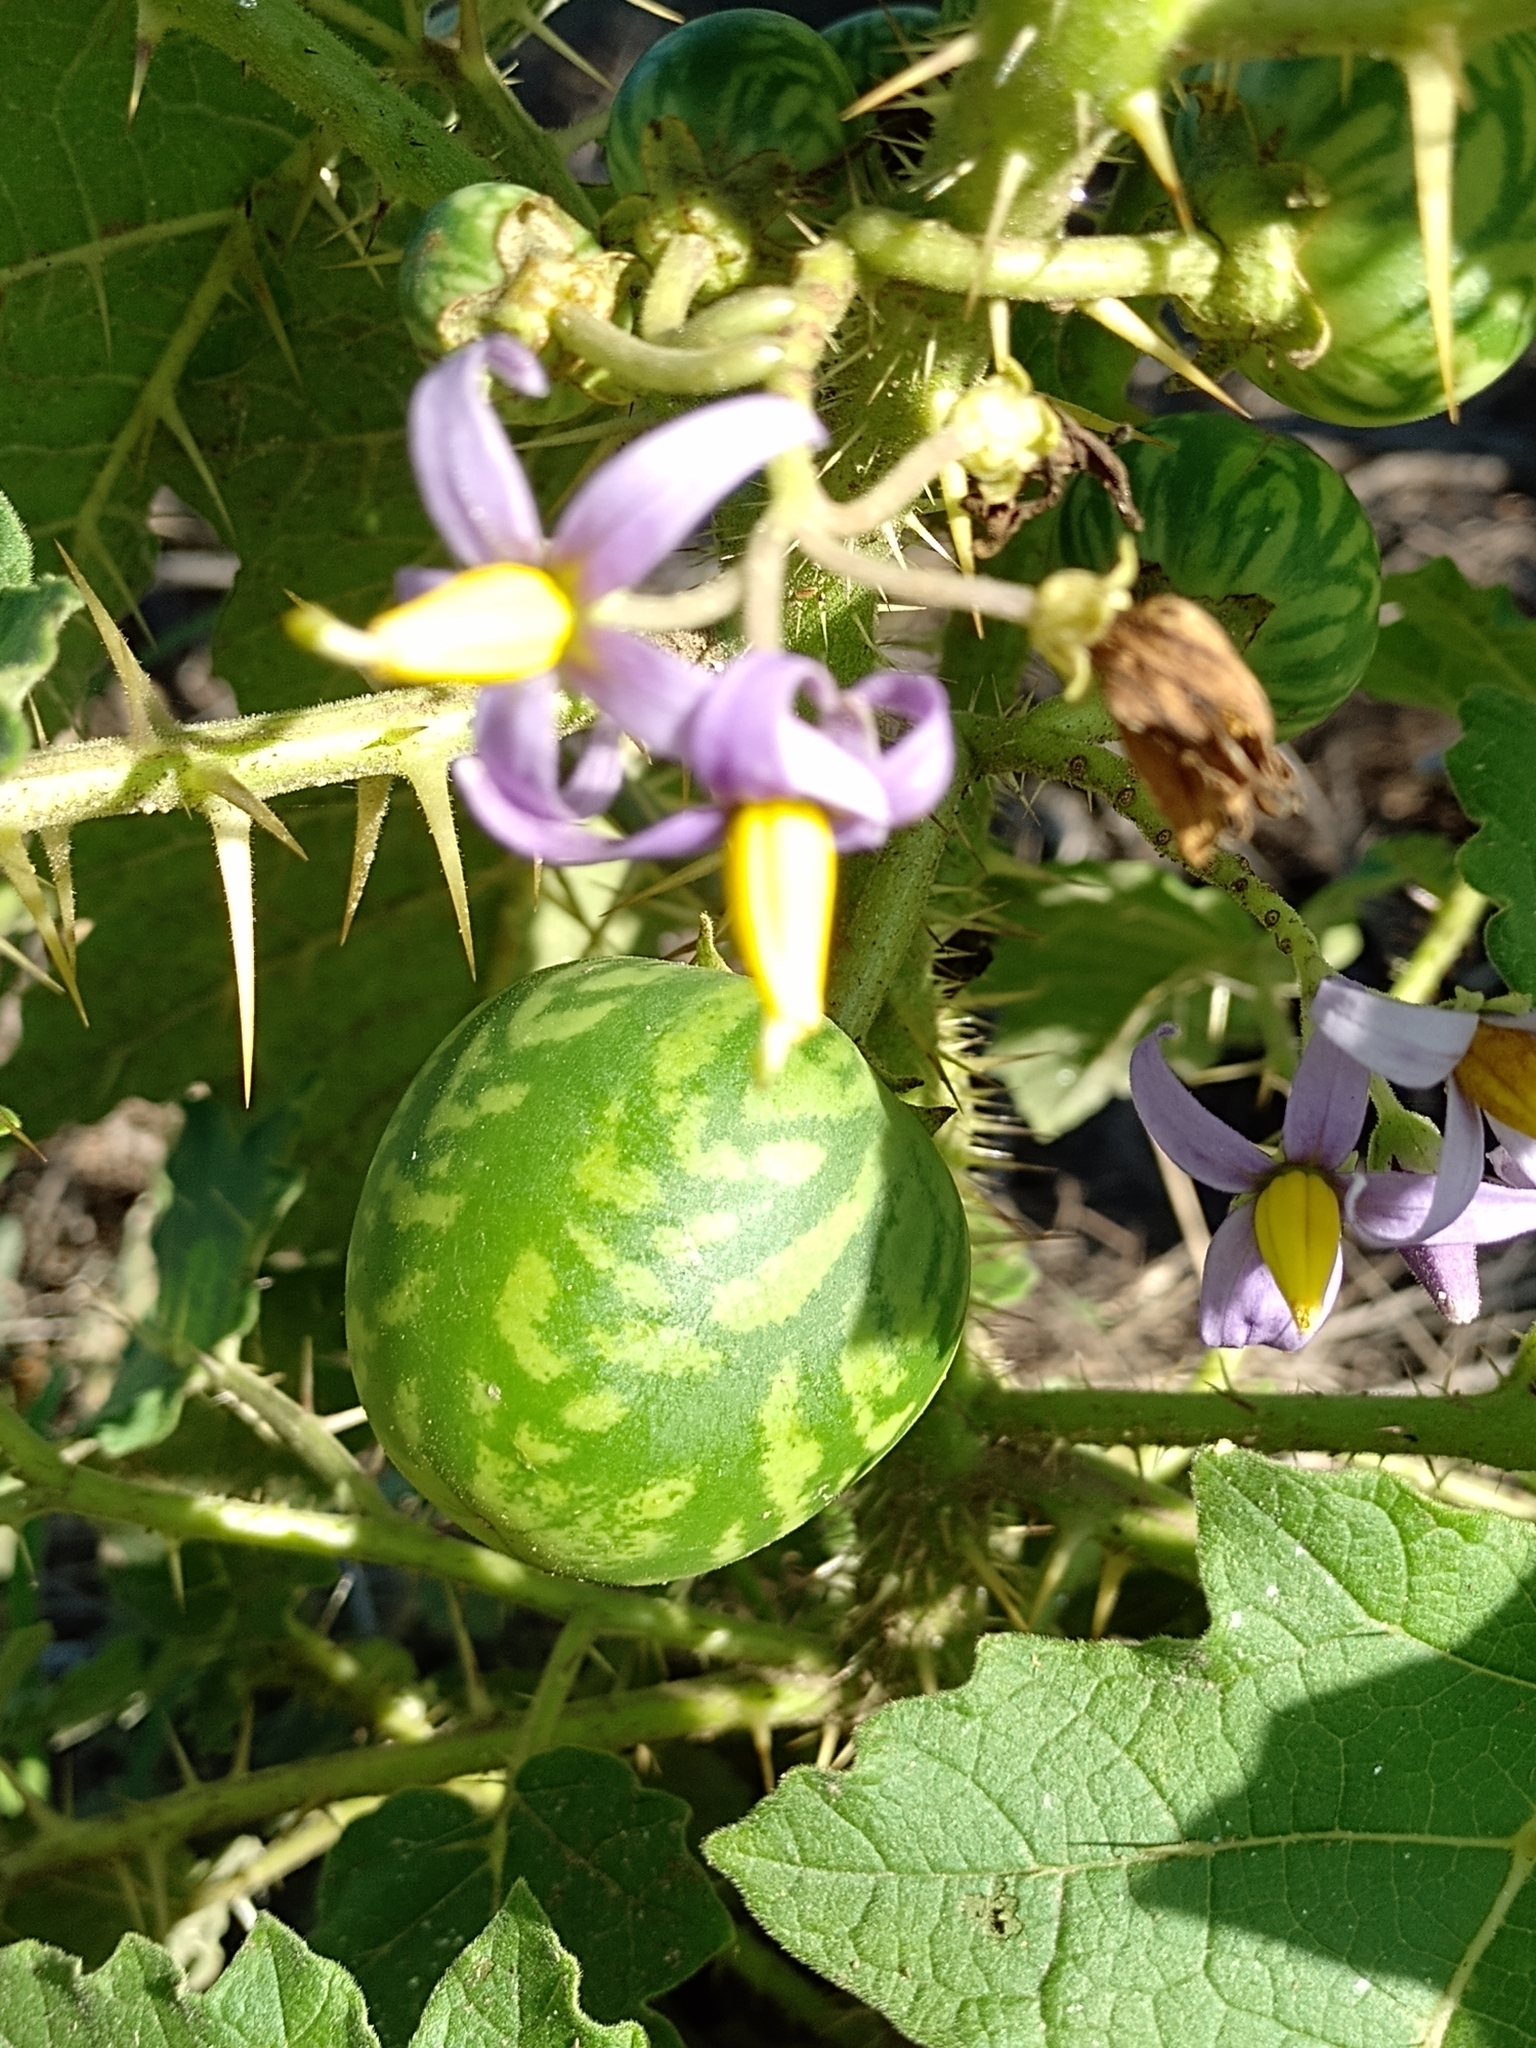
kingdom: Plantae
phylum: Tracheophyta
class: Magnoliopsida
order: Solanales
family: Solanaceae
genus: Solanum
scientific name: Solanum palinacanthum
